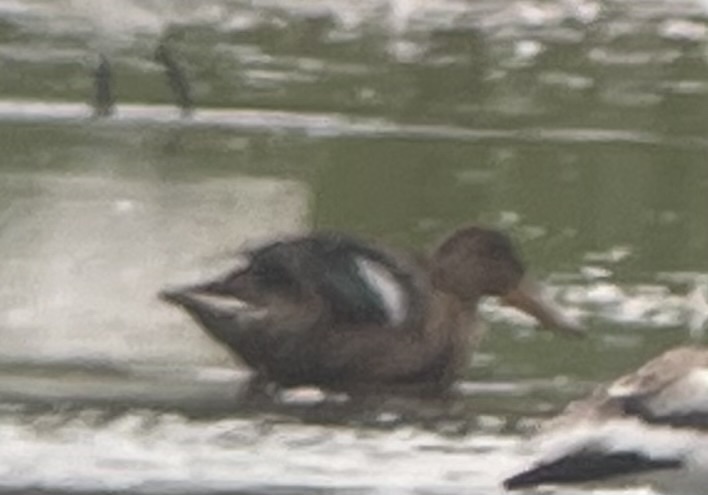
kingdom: Animalia
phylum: Chordata
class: Aves
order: Anseriformes
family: Anatidae
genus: Spatula
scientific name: Spatula clypeata
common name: Northern shoveler
